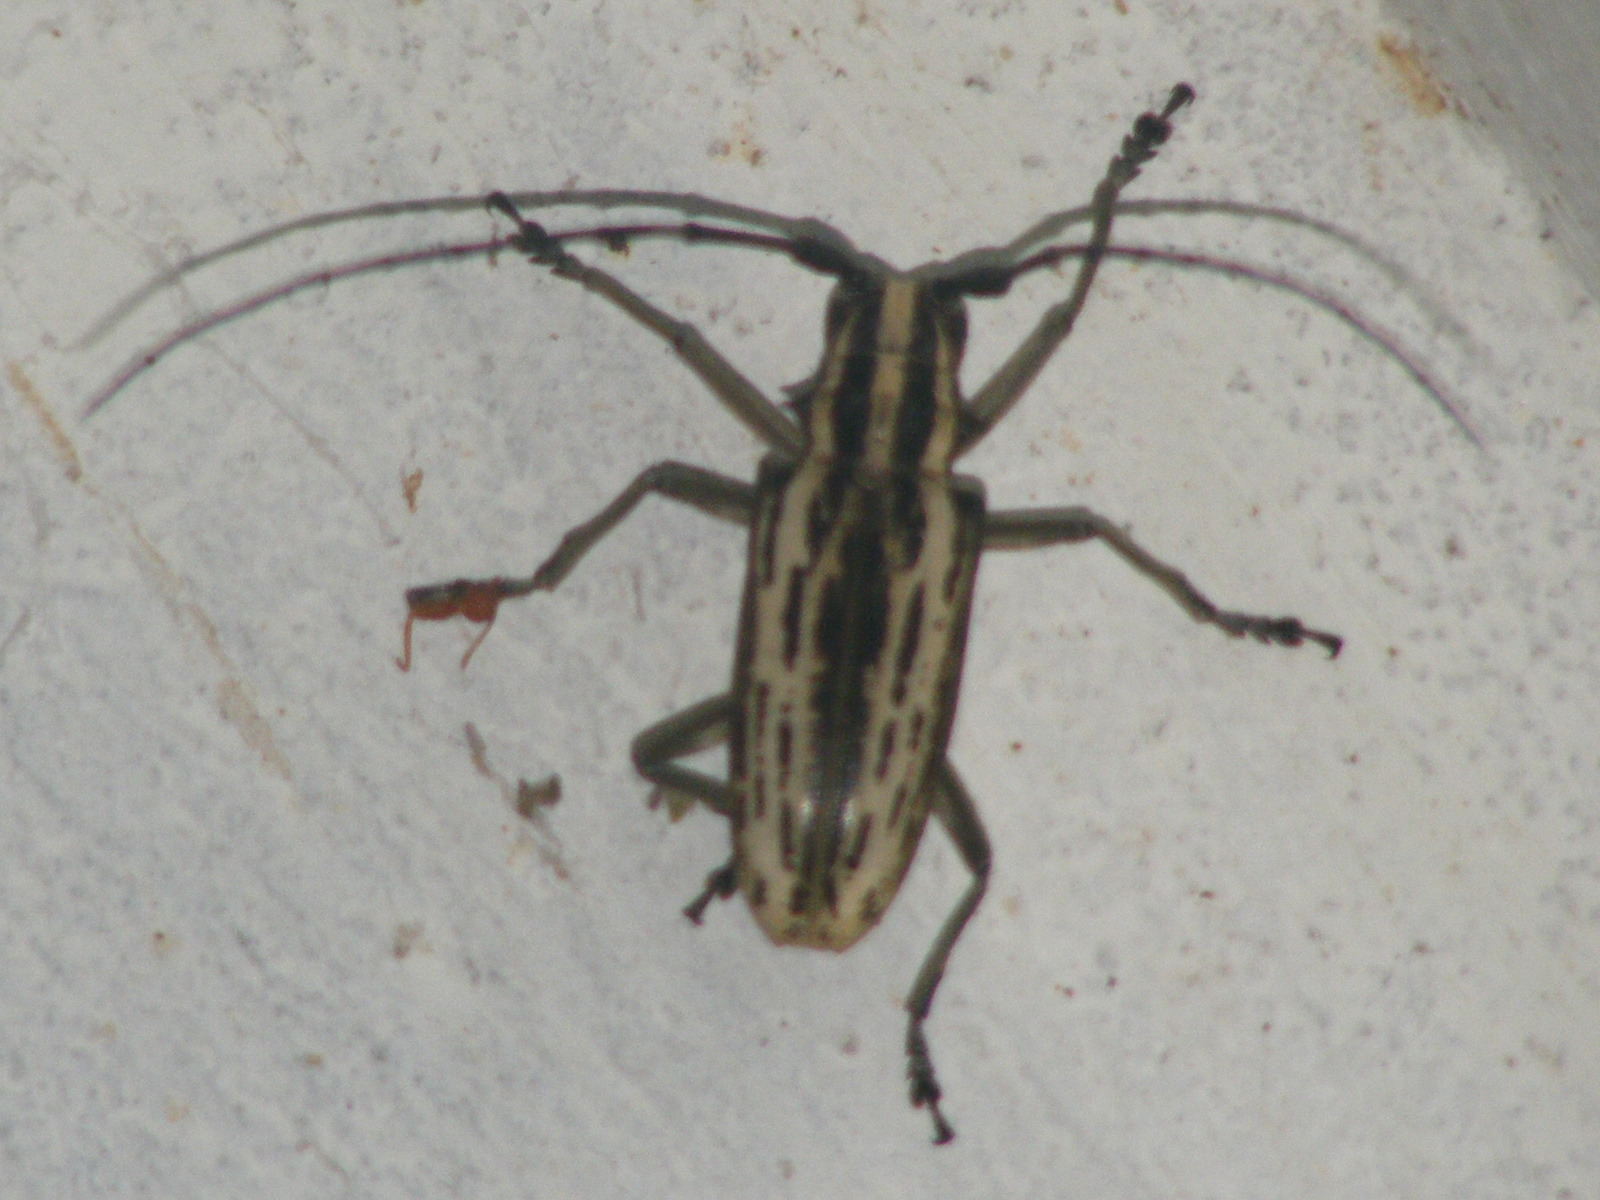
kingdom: Animalia
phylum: Arthropoda
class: Insecta
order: Coleoptera
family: Cerambycidae
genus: Epepeotes
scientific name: Epepeotes uncinatus
